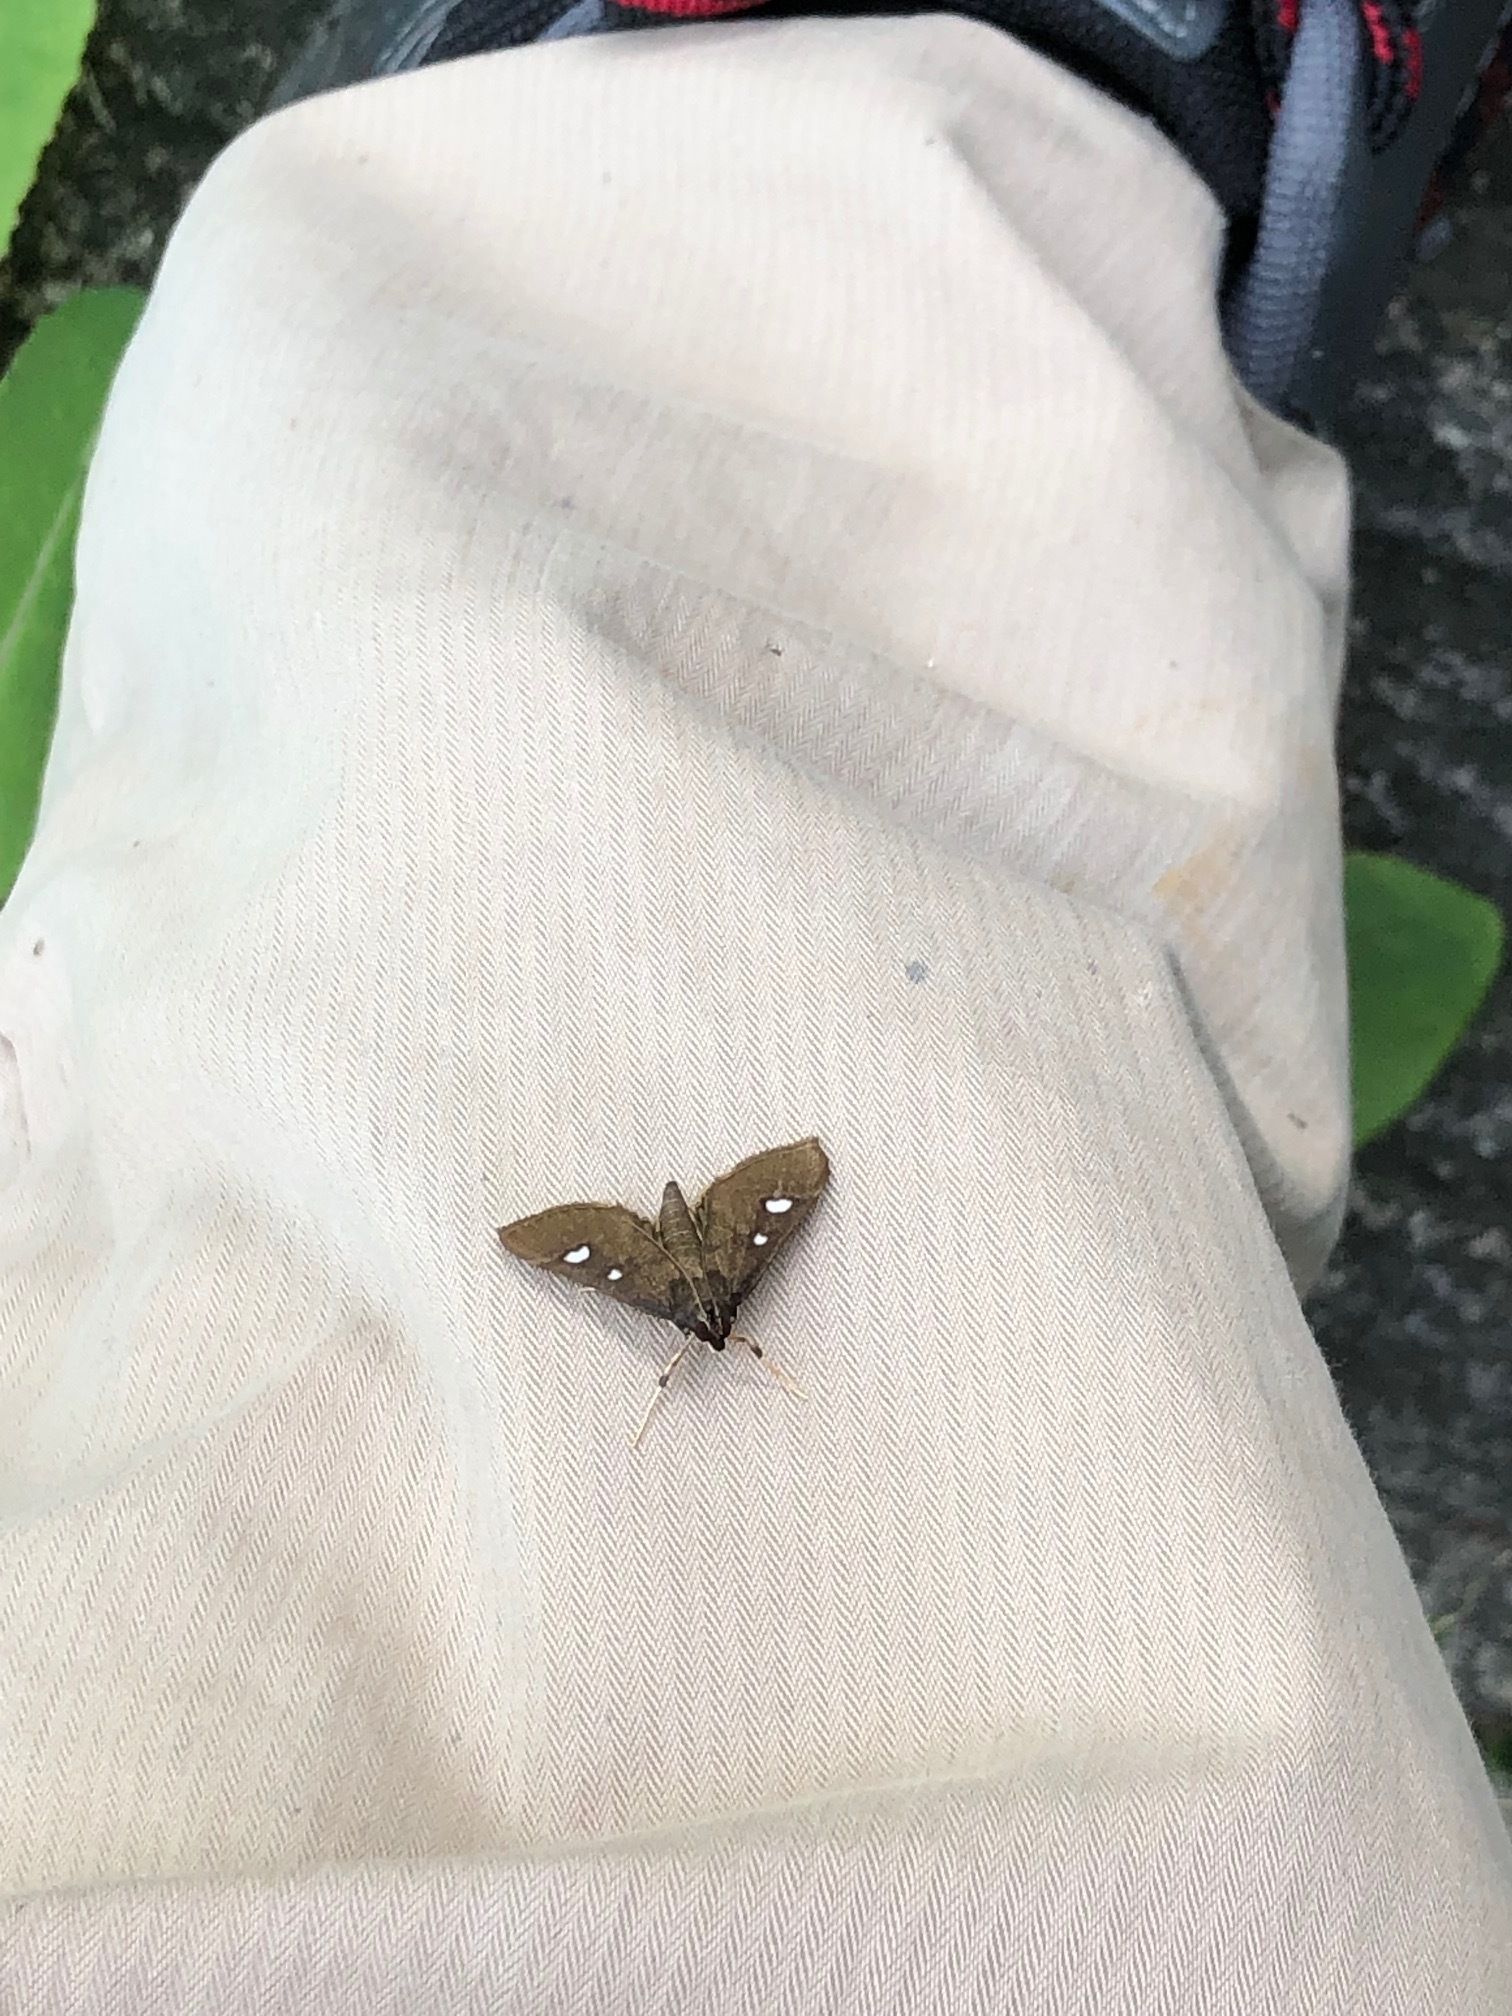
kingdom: Animalia
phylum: Arthropoda
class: Insecta
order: Lepidoptera
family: Crambidae
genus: Glyphodes
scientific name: Glyphodes bipunctalis
